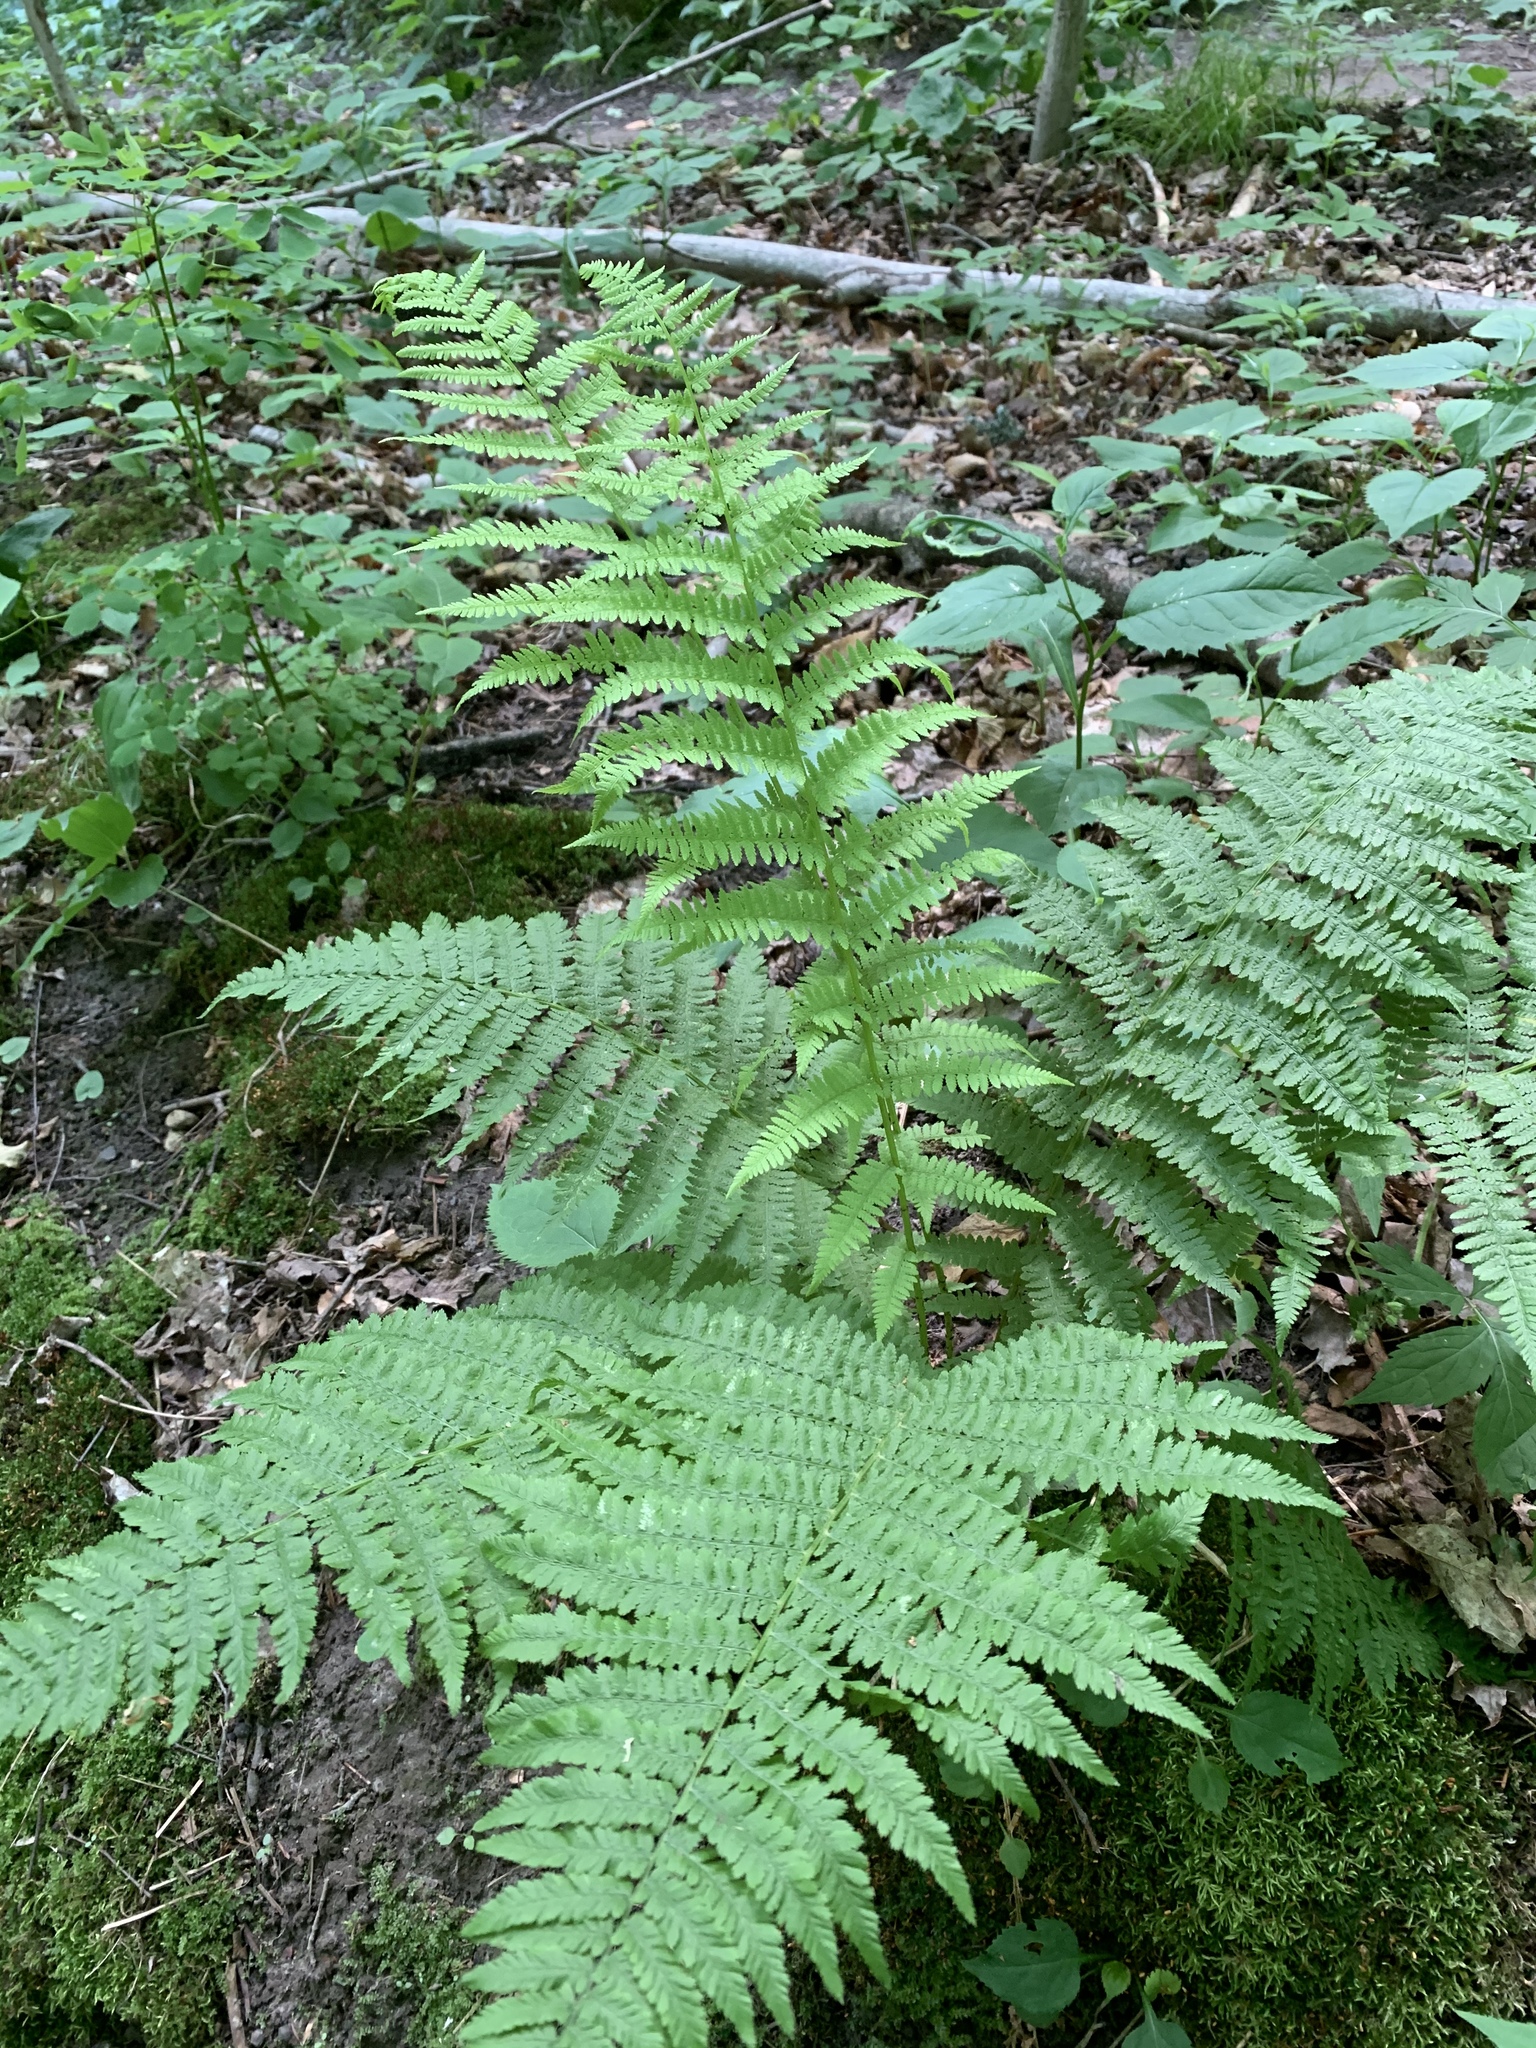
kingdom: Plantae
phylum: Tracheophyta
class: Polypodiopsida
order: Polypodiales
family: Athyriaceae
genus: Athyrium
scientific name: Athyrium angustum
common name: Northern lady fern
